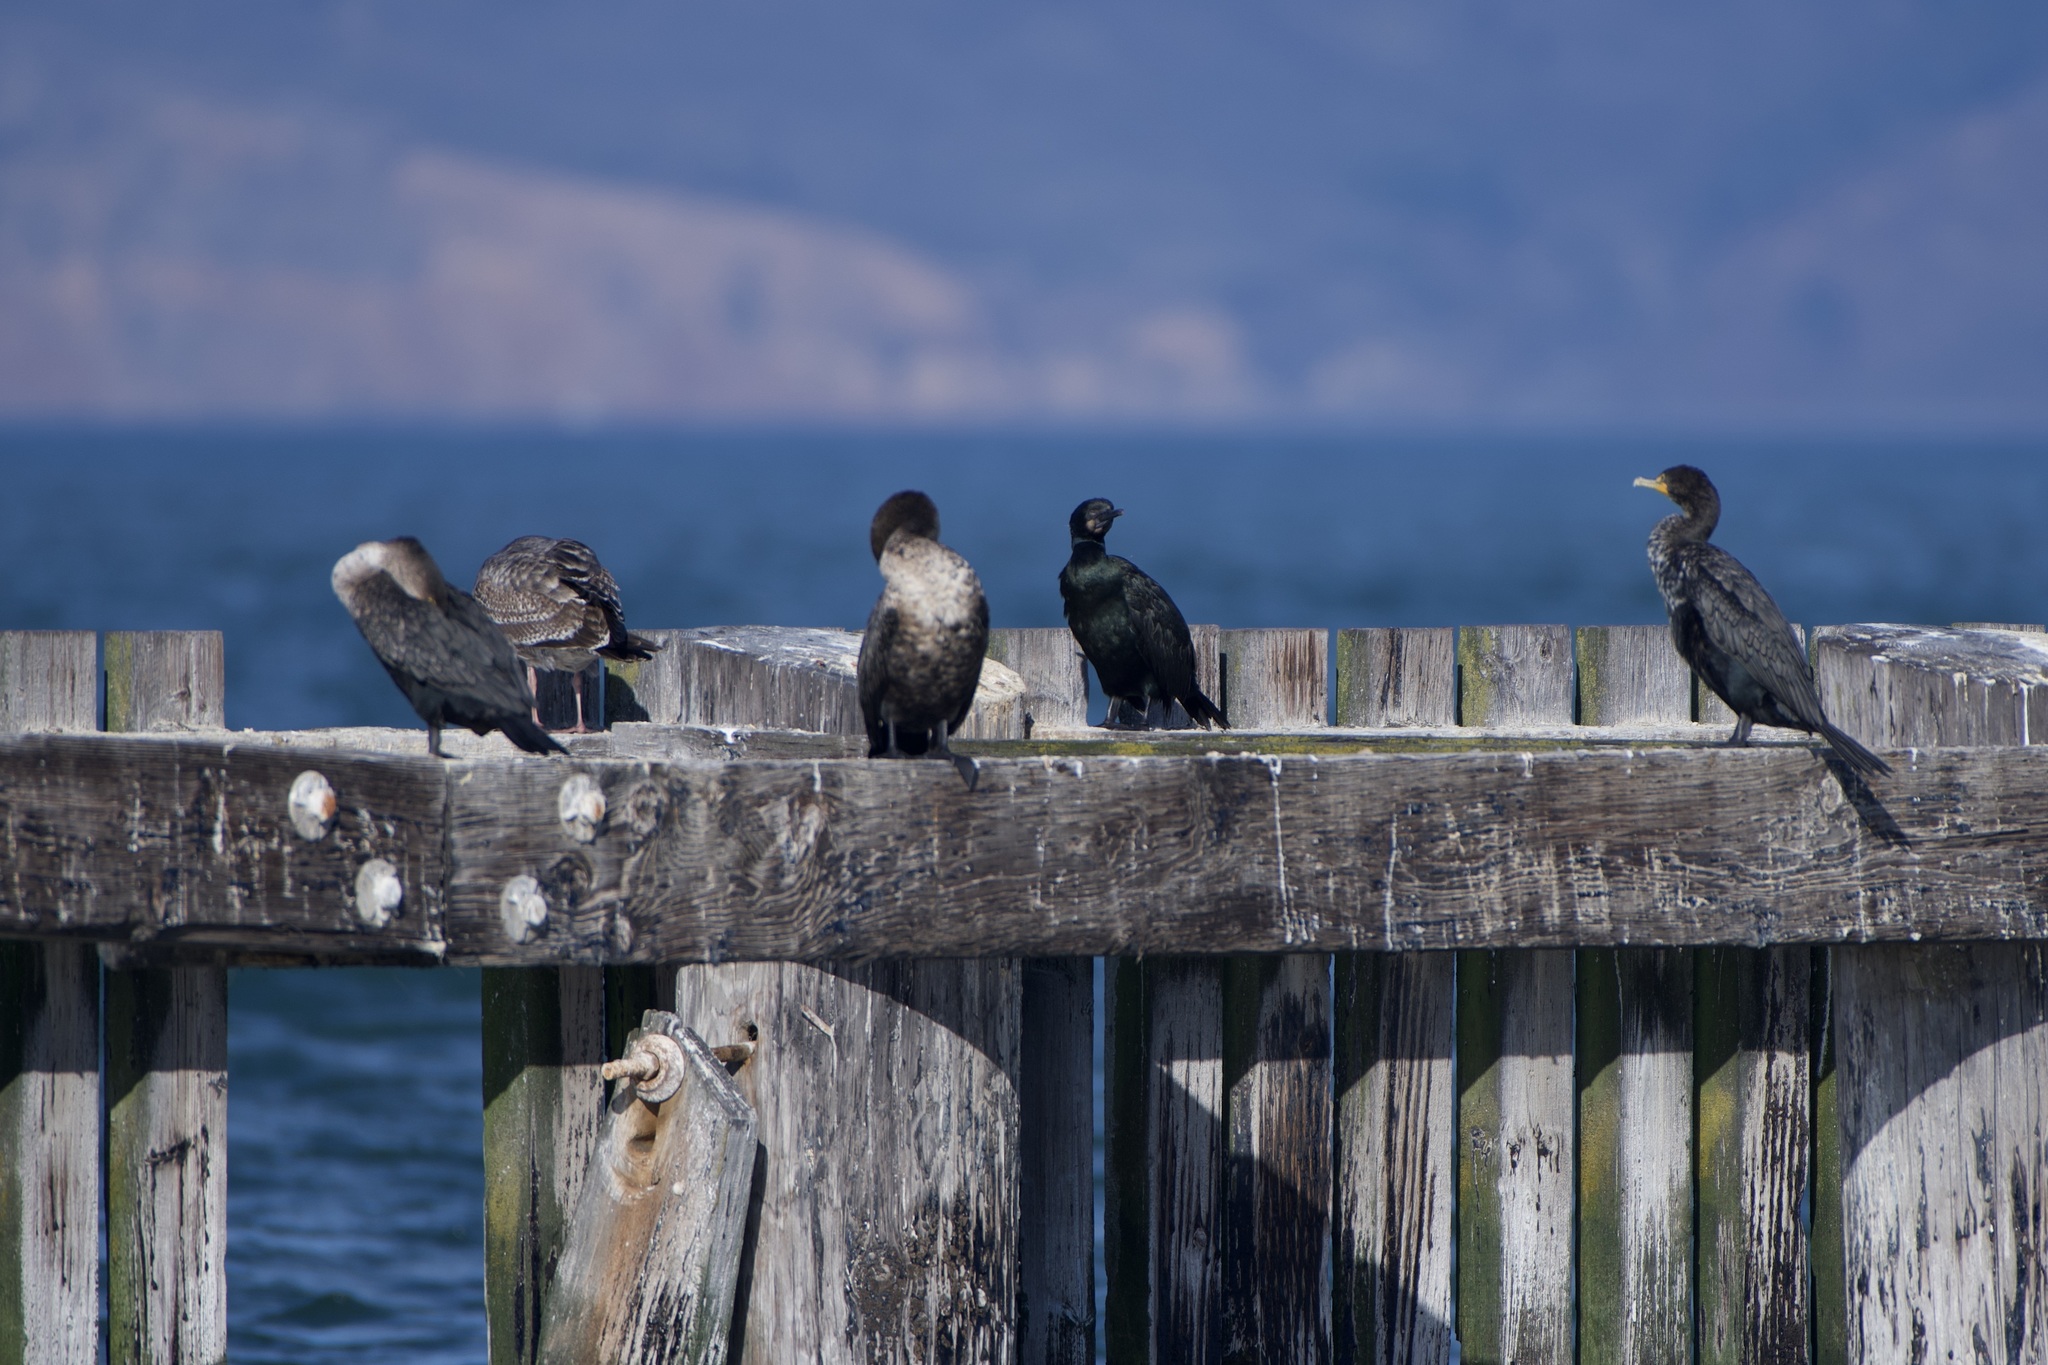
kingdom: Animalia
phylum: Chordata
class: Aves
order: Suliformes
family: Phalacrocoracidae
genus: Urile
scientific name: Urile penicillatus
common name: Brandt's cormorant
